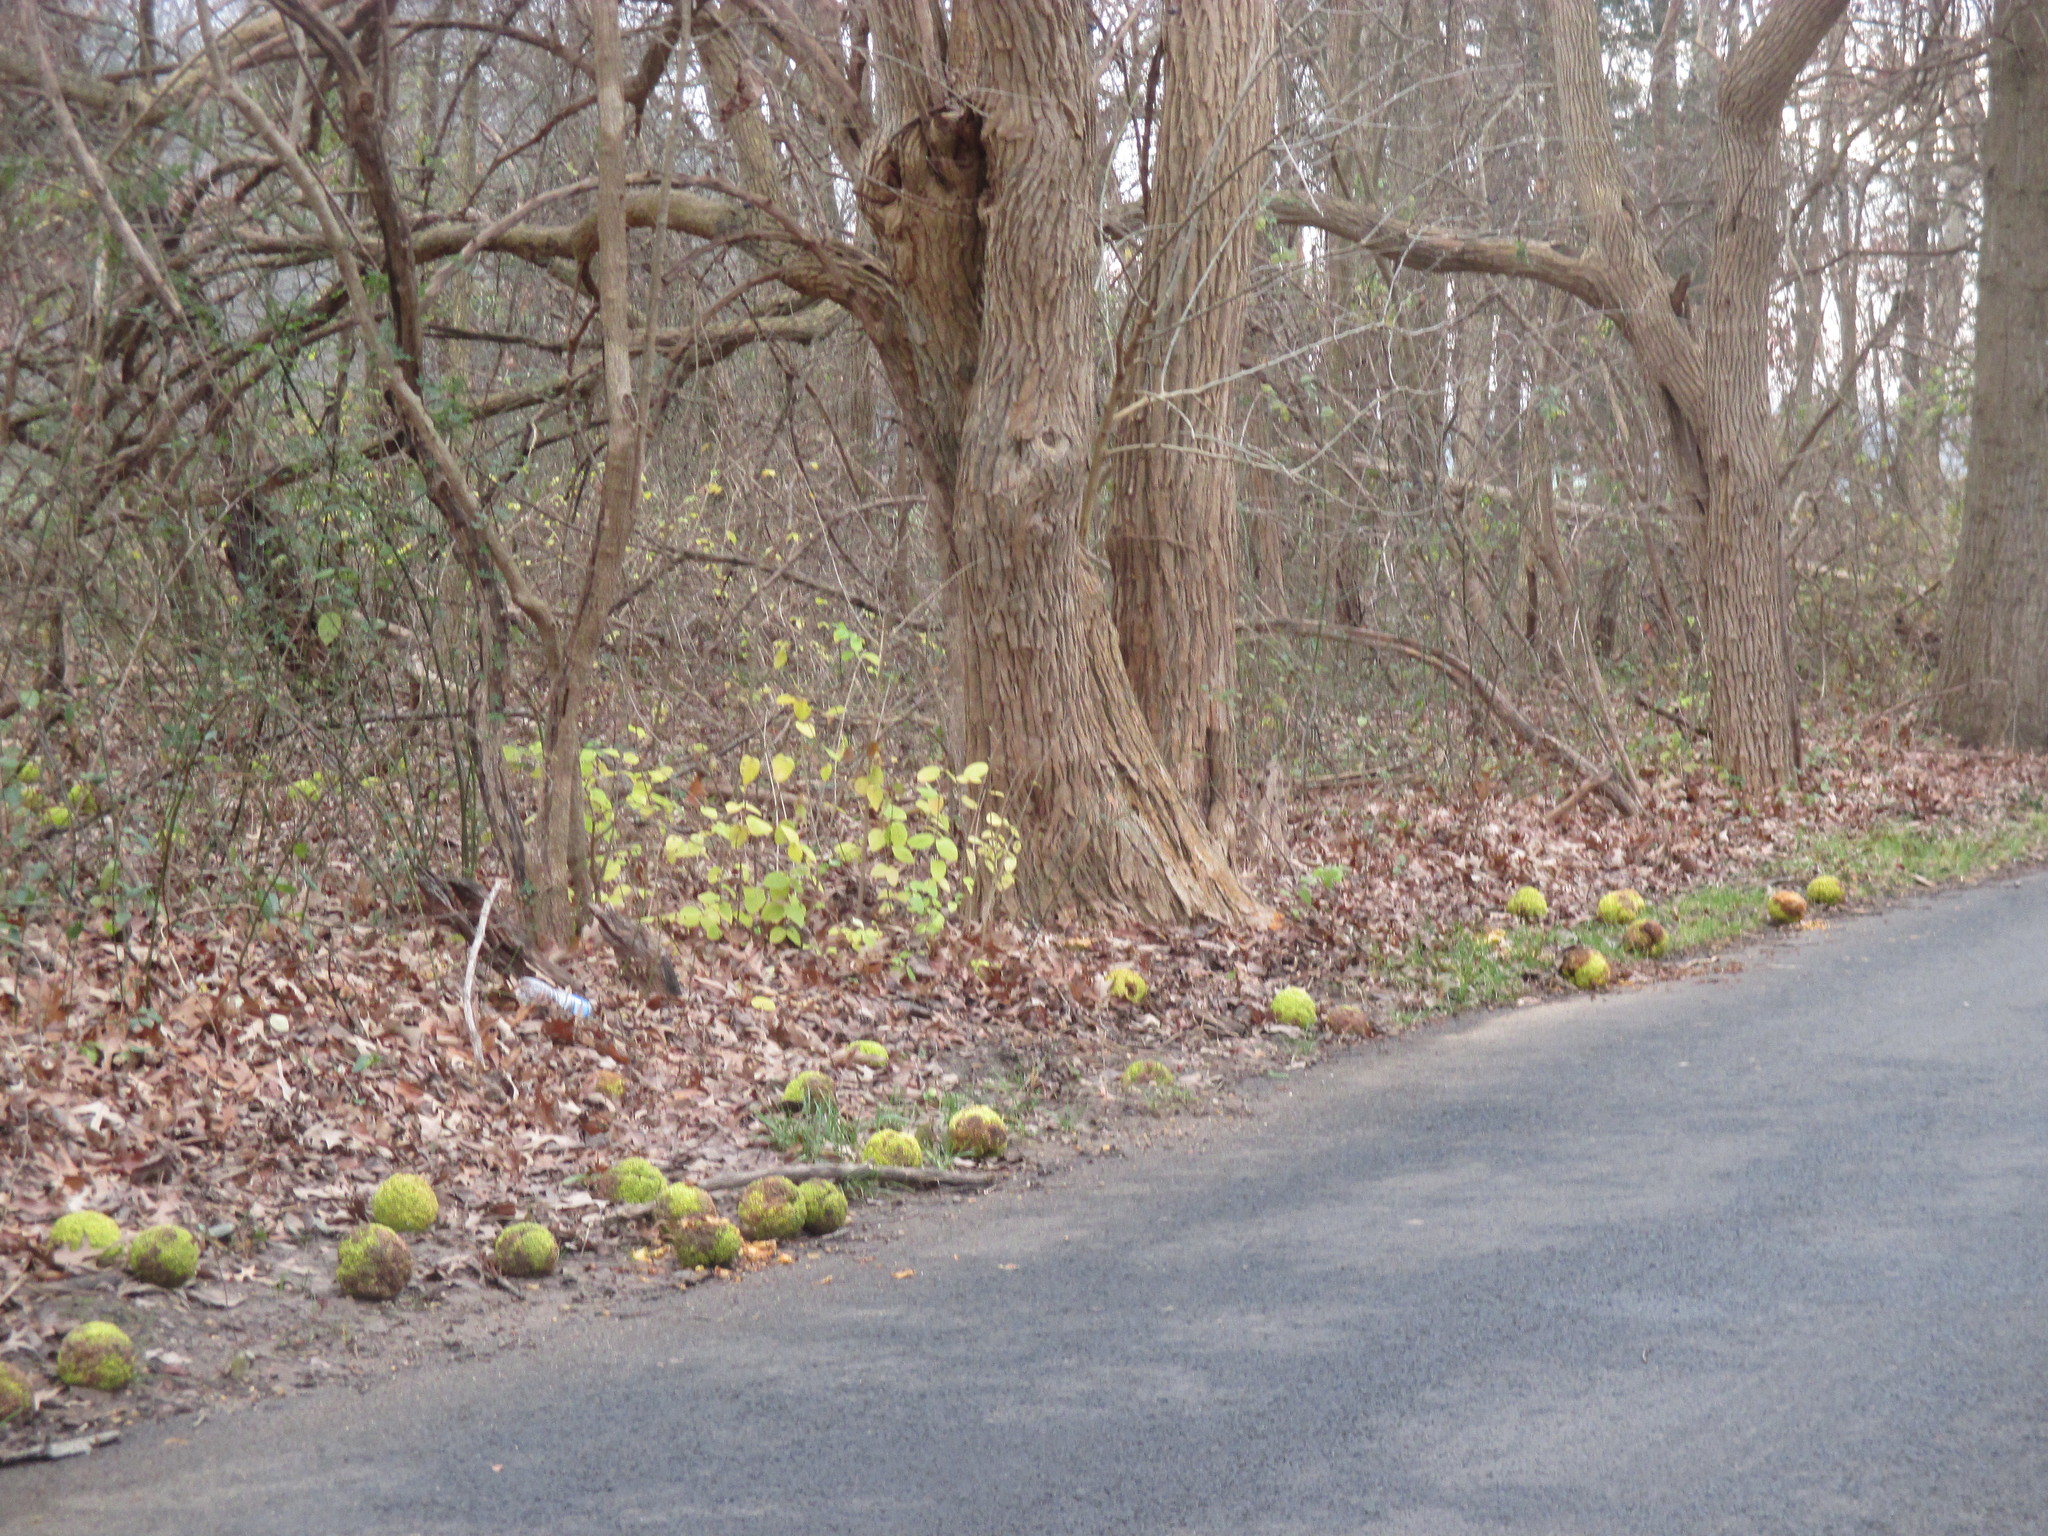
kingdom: Plantae
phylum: Tracheophyta
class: Magnoliopsida
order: Rosales
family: Moraceae
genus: Maclura
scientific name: Maclura pomifera
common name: Osage-orange
